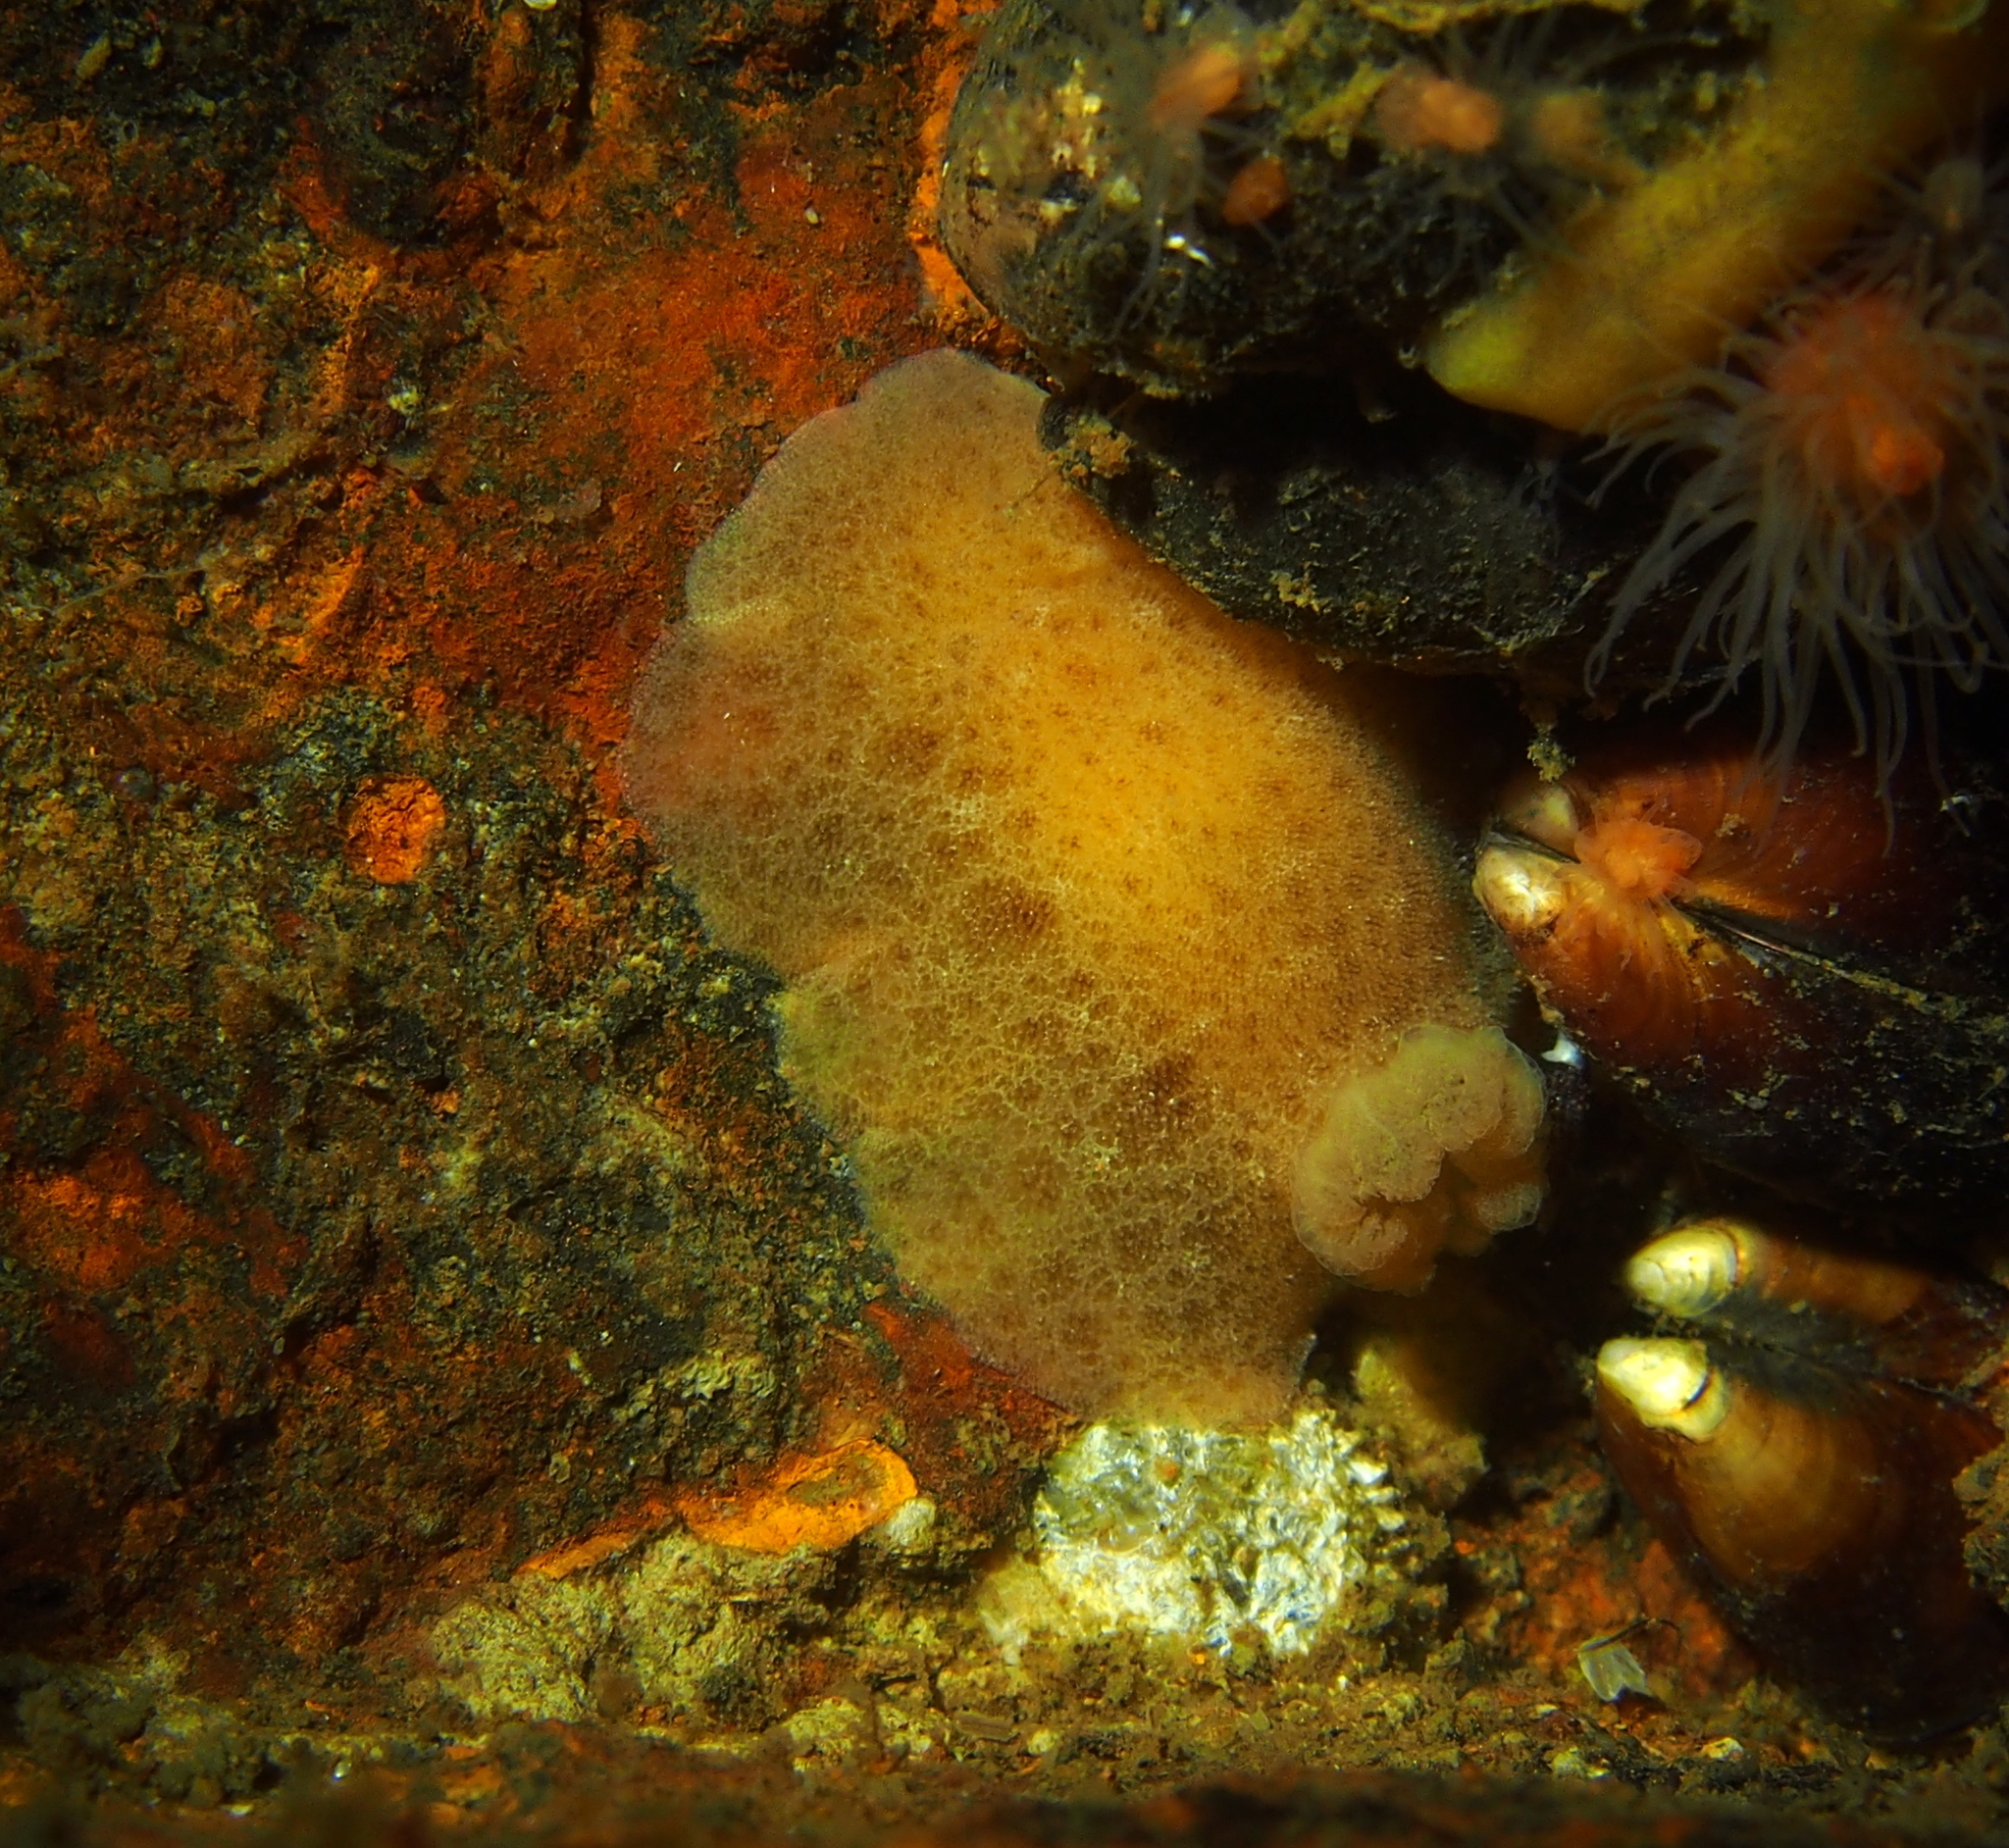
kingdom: Animalia
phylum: Mollusca
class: Gastropoda
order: Nudibranchia
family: Discodorididae
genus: Jorunna
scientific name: Jorunna tomentosa
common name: Grey sea slug
